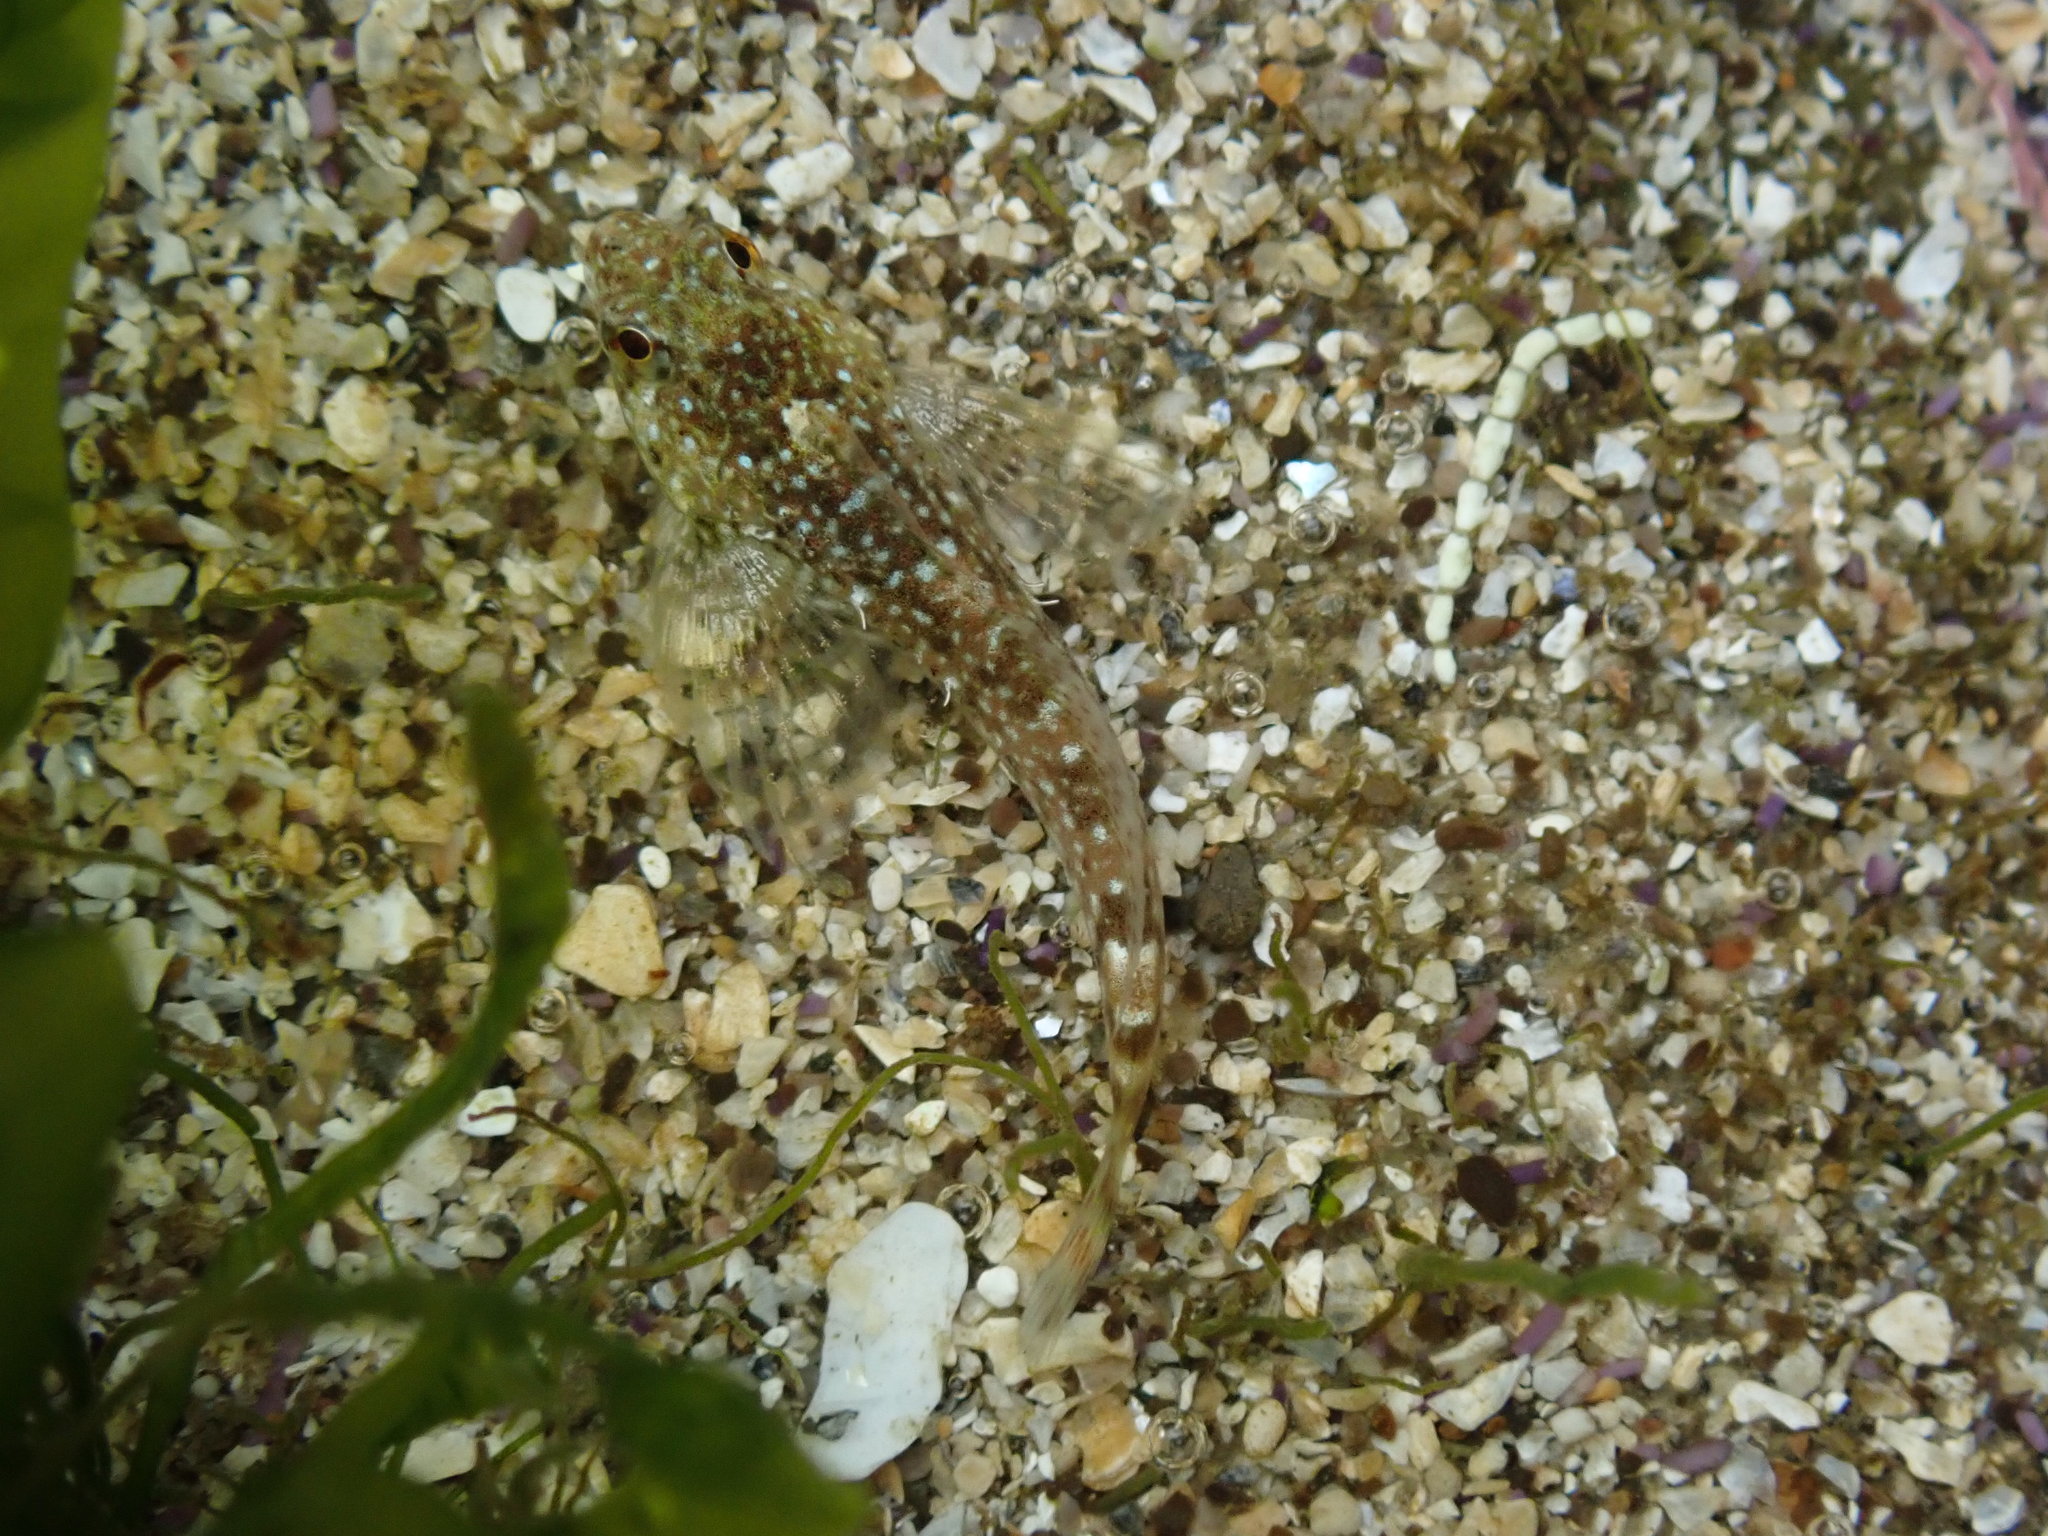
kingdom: Animalia
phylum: Chordata
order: Scorpaeniformes
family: Cottidae
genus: Clinocottus
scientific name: Clinocottus analis
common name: Woolly sculpin
